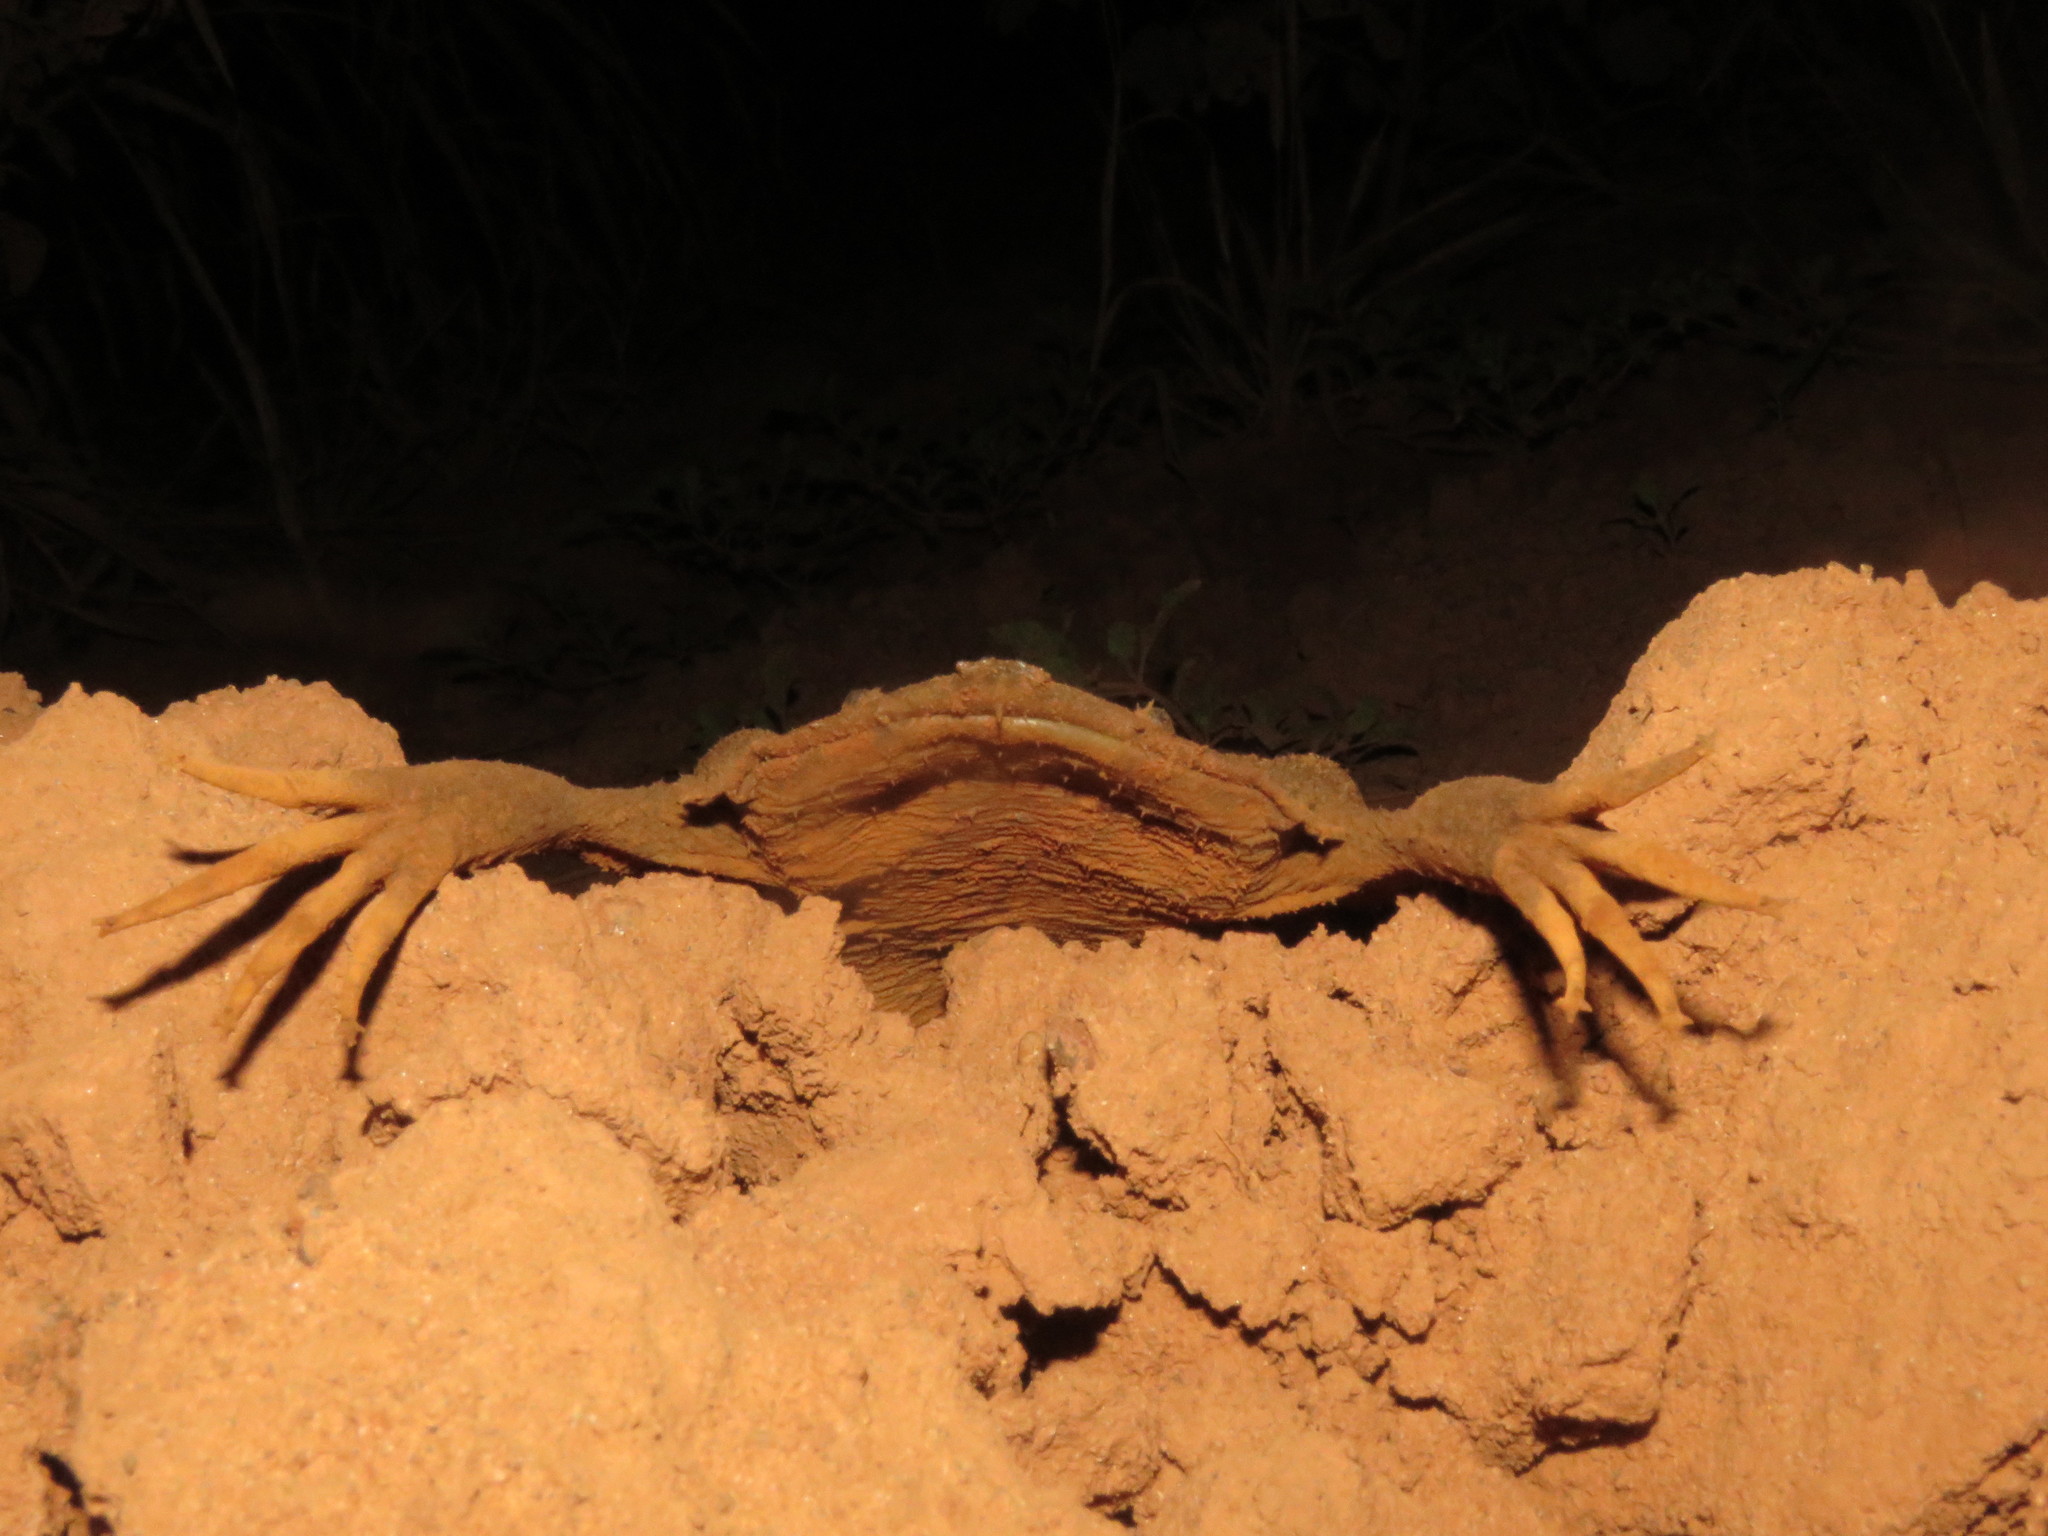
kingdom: Animalia
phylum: Chordata
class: Amphibia
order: Anura
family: Pipidae
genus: Pipa
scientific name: Pipa pipa
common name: Surinam toad
